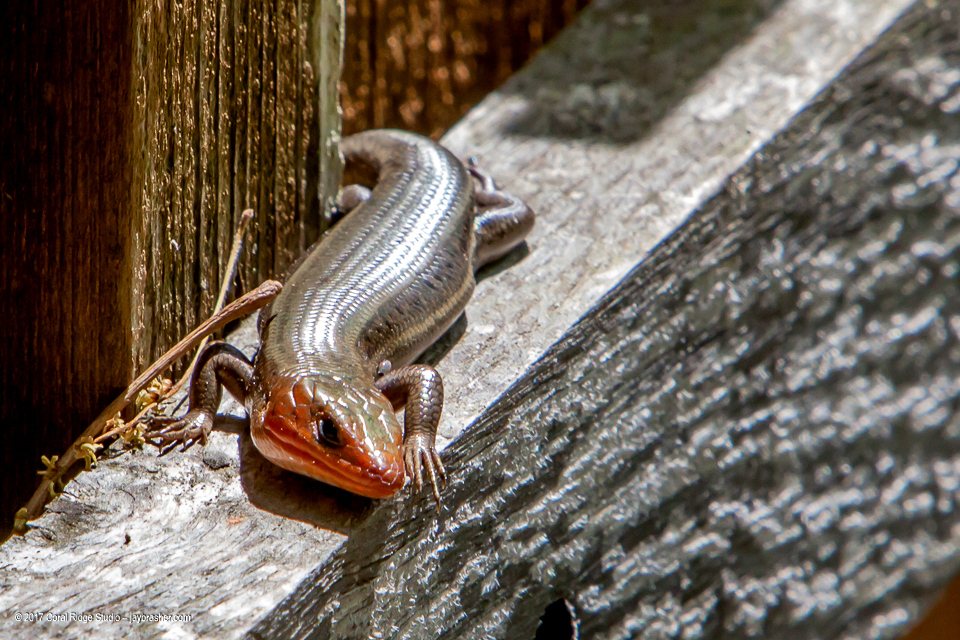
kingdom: Animalia
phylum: Chordata
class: Squamata
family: Scincidae
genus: Plestiodon
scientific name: Plestiodon fasciatus
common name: Five-lined skink
